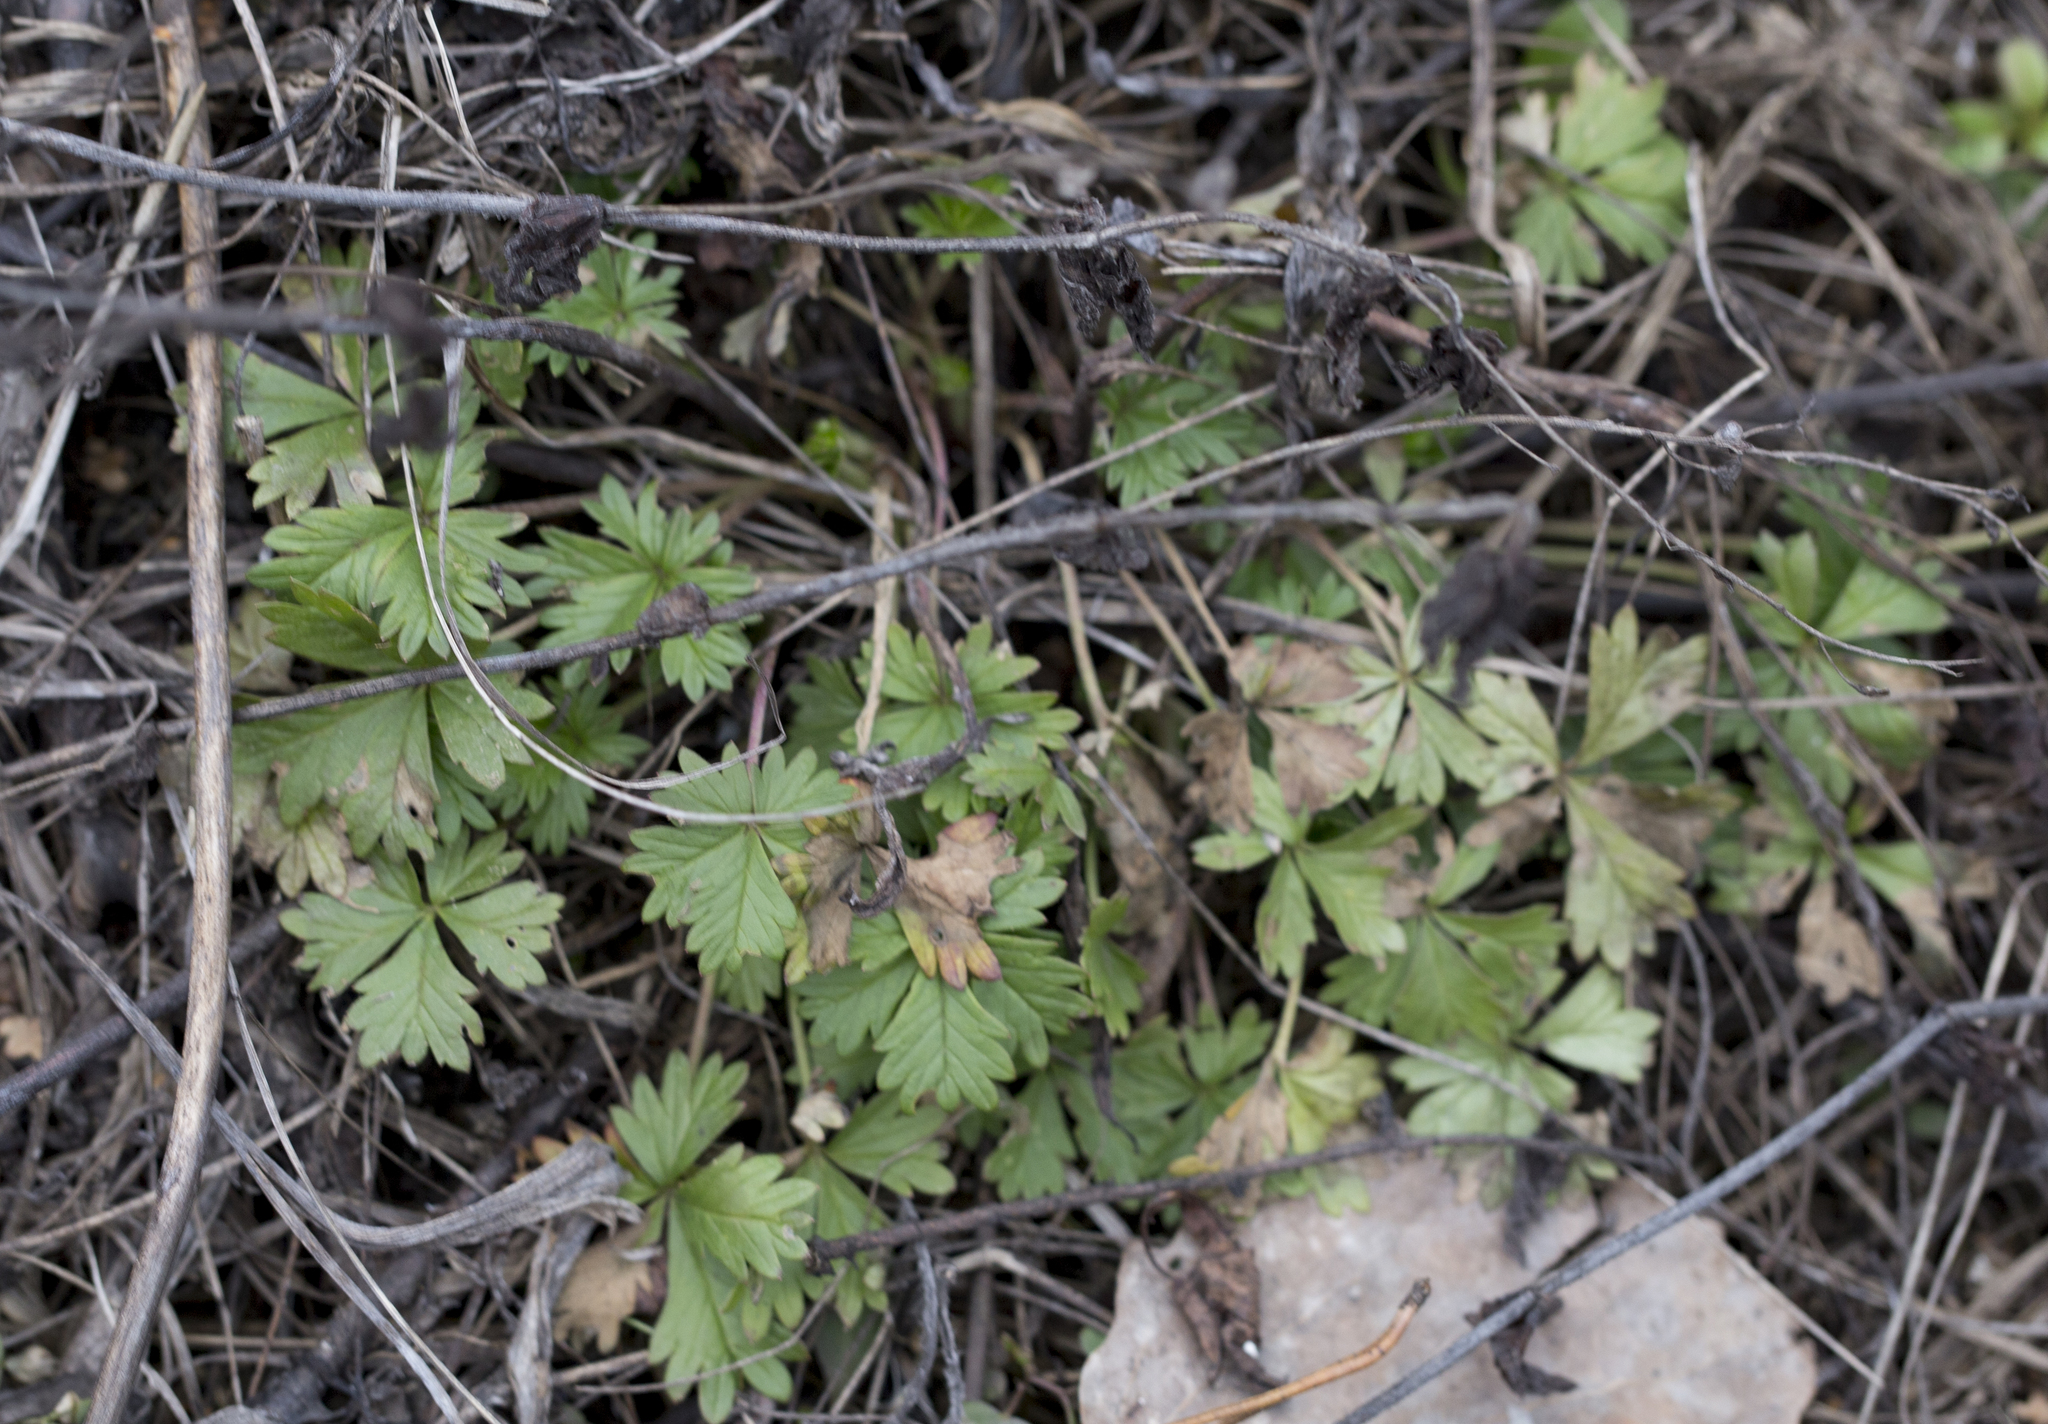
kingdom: Plantae
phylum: Tracheophyta
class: Magnoliopsida
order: Rosales
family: Rosaceae
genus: Potentilla
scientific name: Potentilla intermedia
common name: Downy cinquefoil
